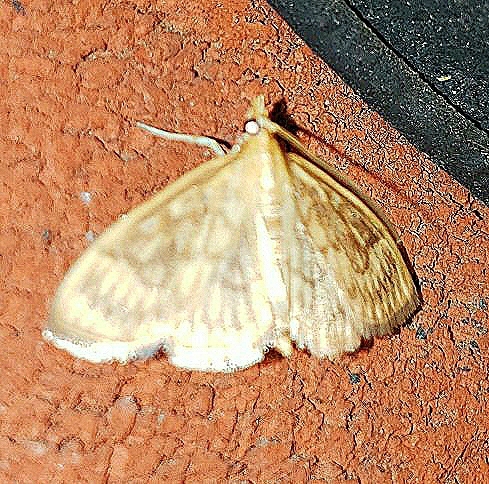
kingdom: Animalia
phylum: Arthropoda
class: Insecta
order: Lepidoptera
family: Crambidae
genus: Crocidophora
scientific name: Crocidophora serratissimalis
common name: Saw-toothed crocidophora moth
